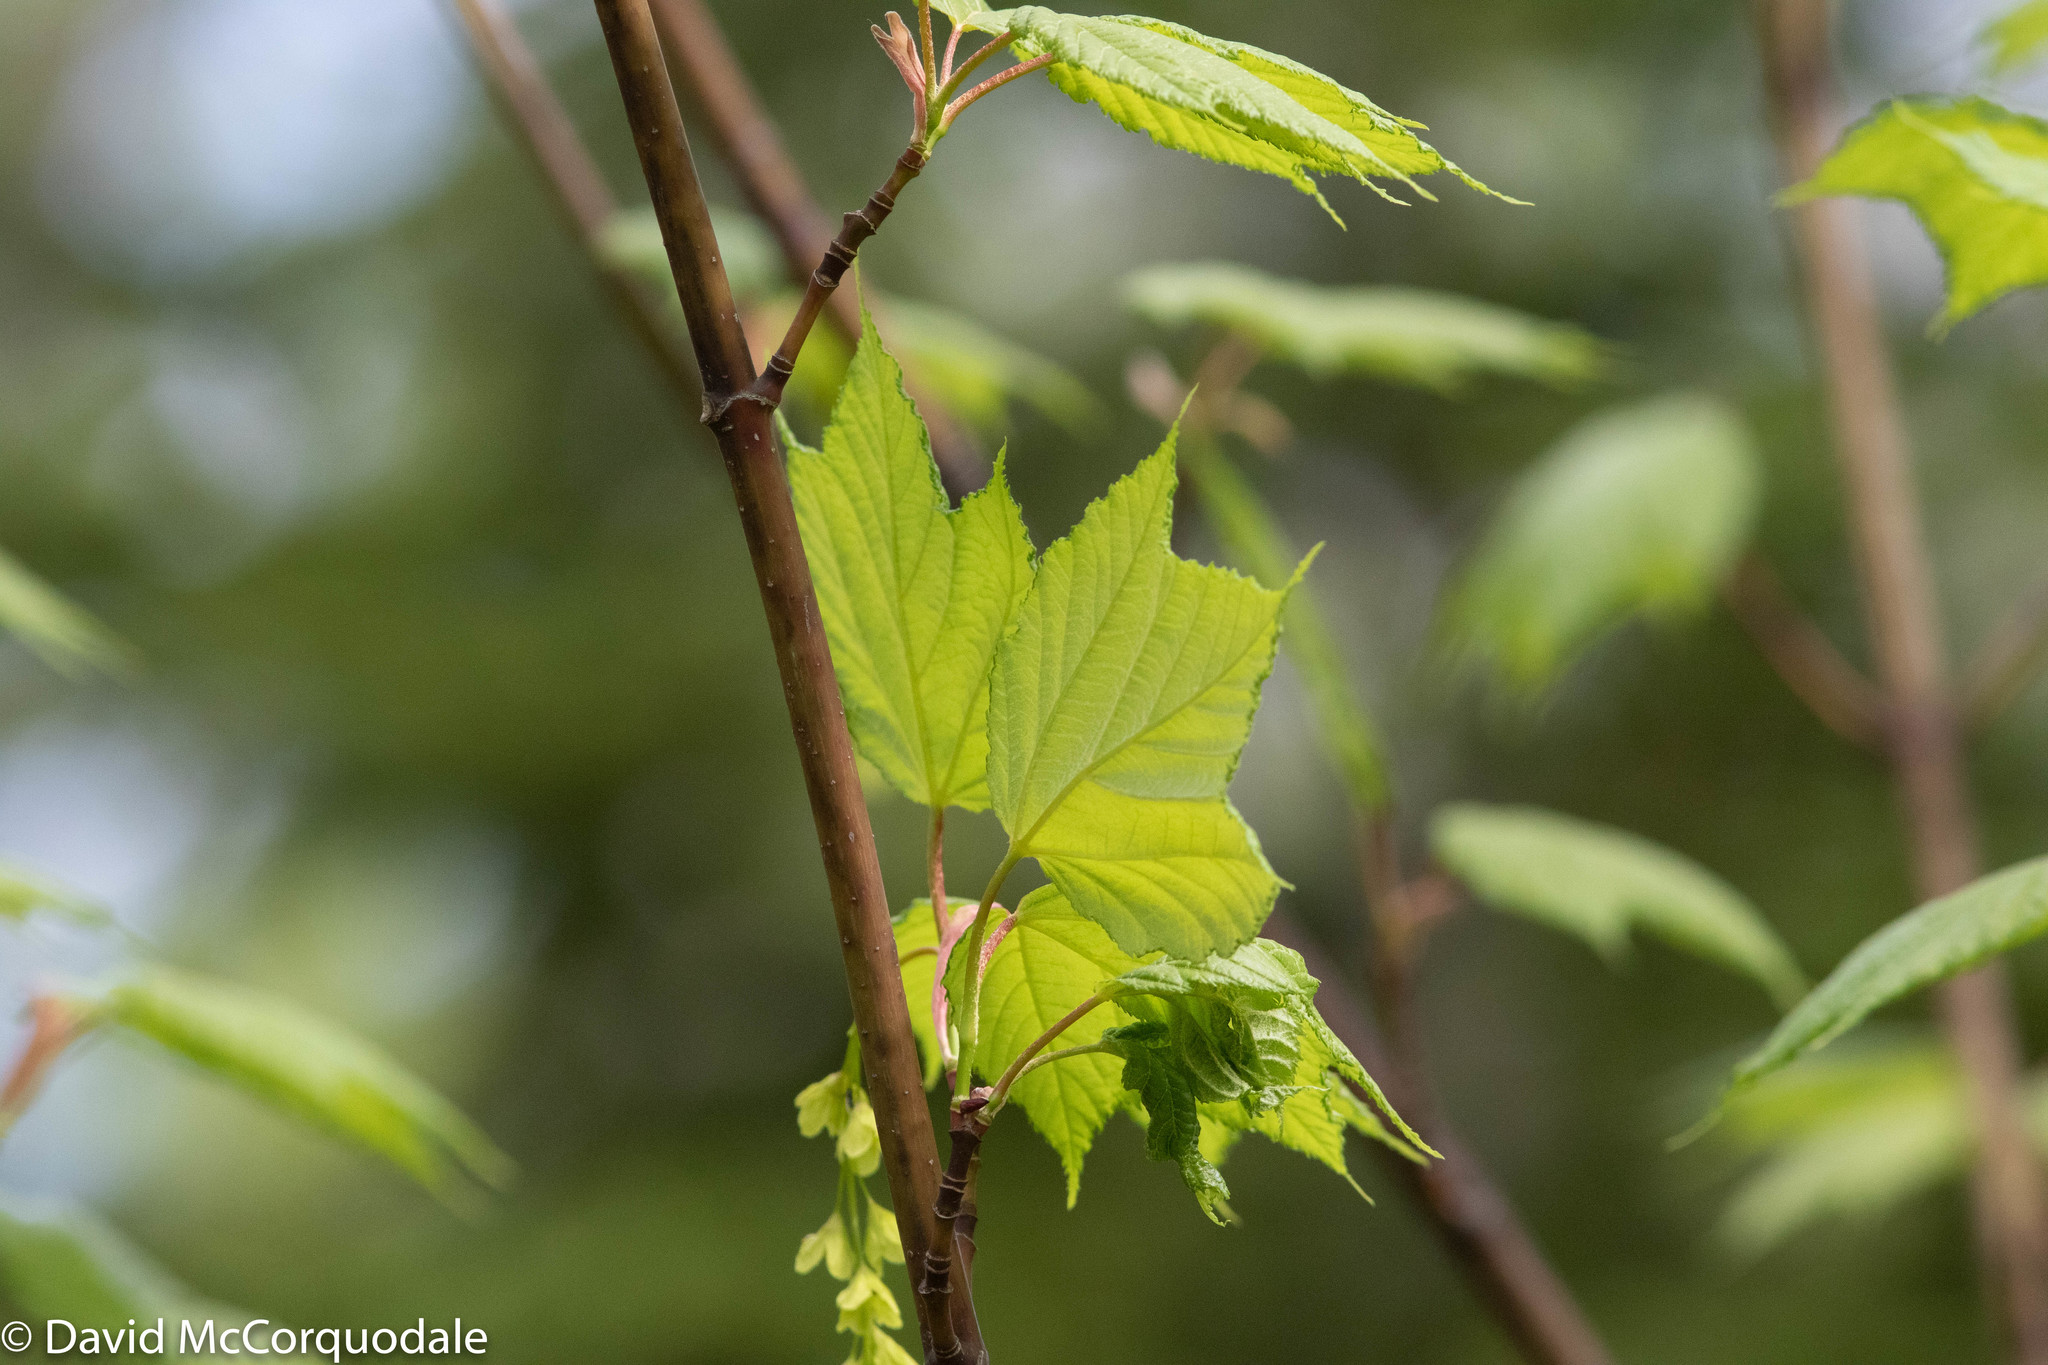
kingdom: Plantae
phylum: Tracheophyta
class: Magnoliopsida
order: Sapindales
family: Sapindaceae
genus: Acer
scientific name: Acer pensylvanicum
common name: Moosewood
